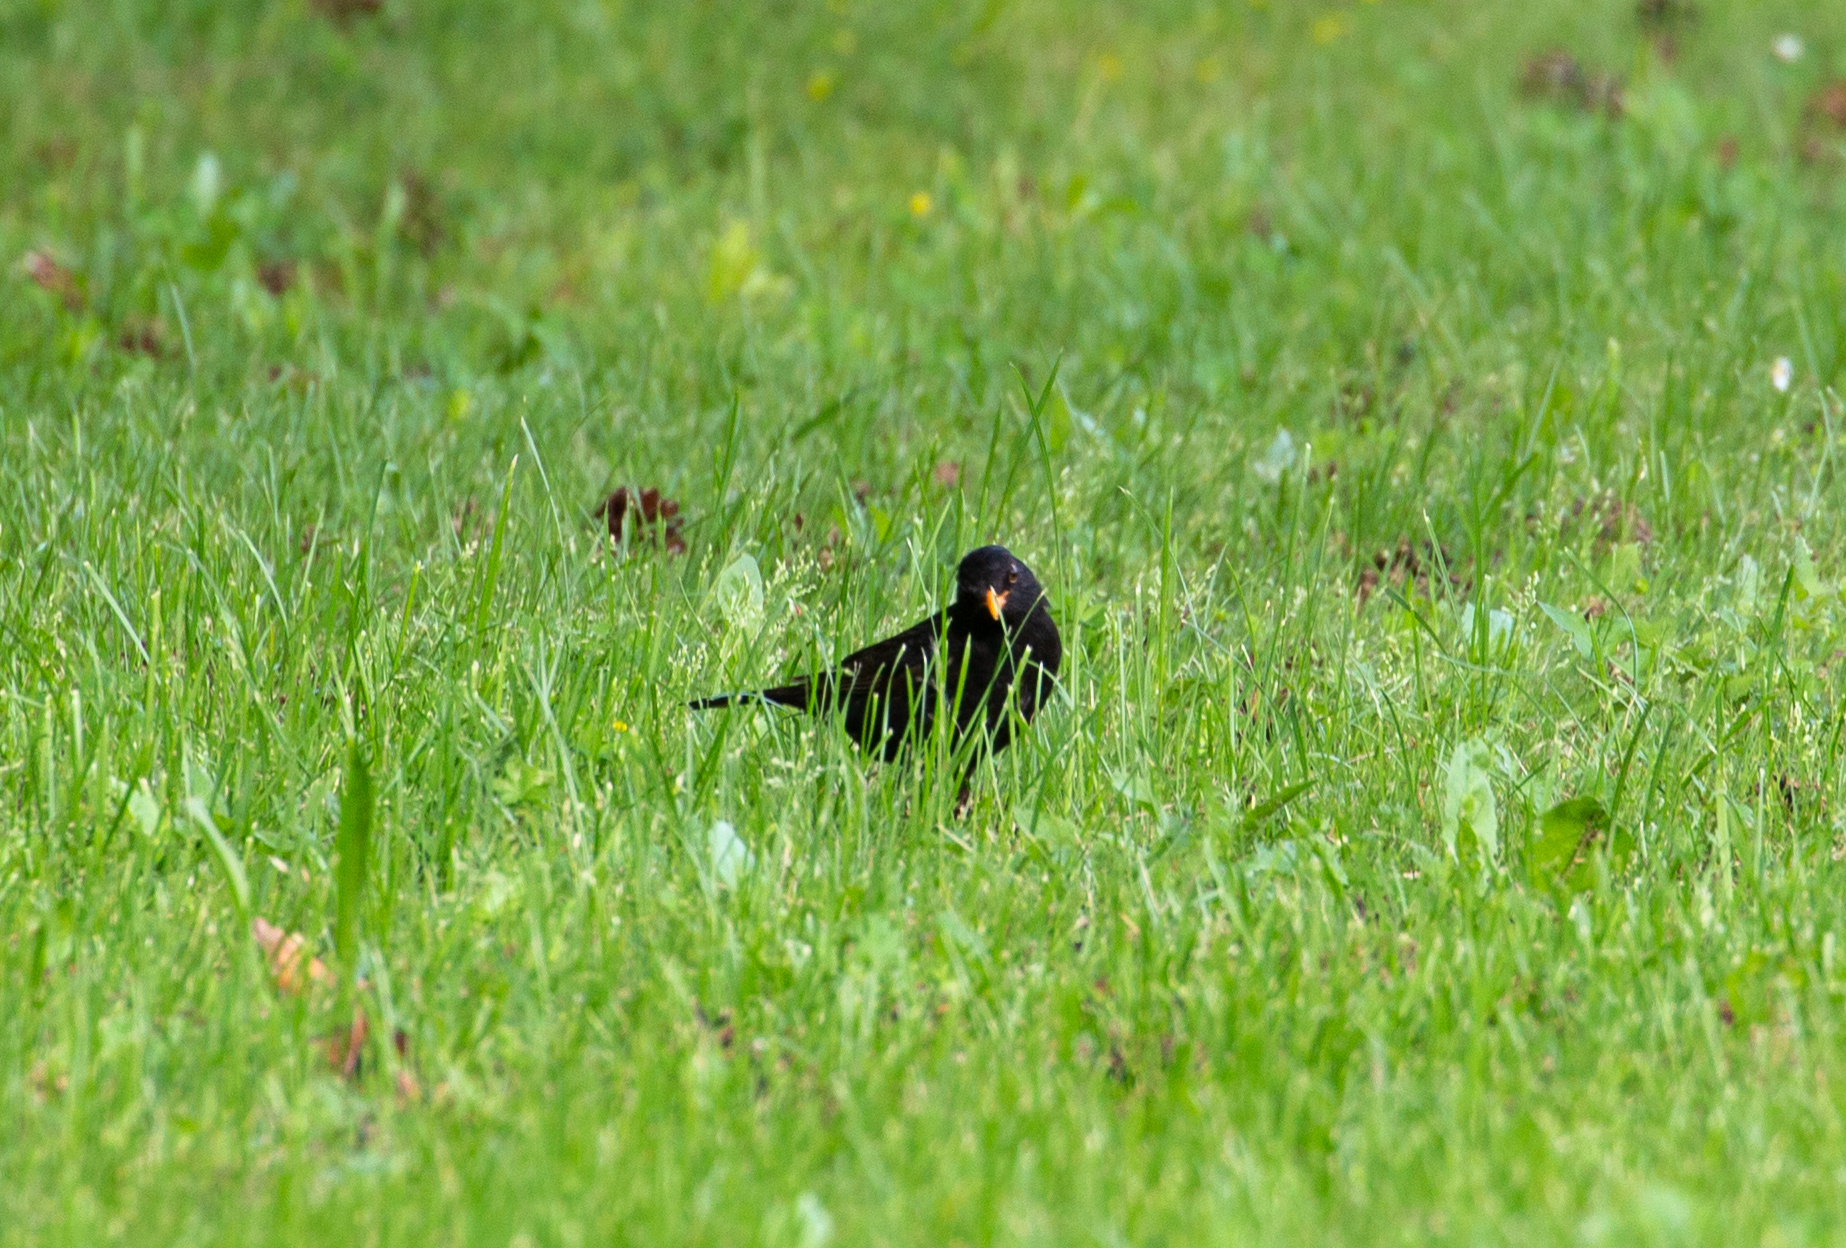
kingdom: Animalia
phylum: Chordata
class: Aves
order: Passeriformes
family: Turdidae
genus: Turdus
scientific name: Turdus merula
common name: Common blackbird
